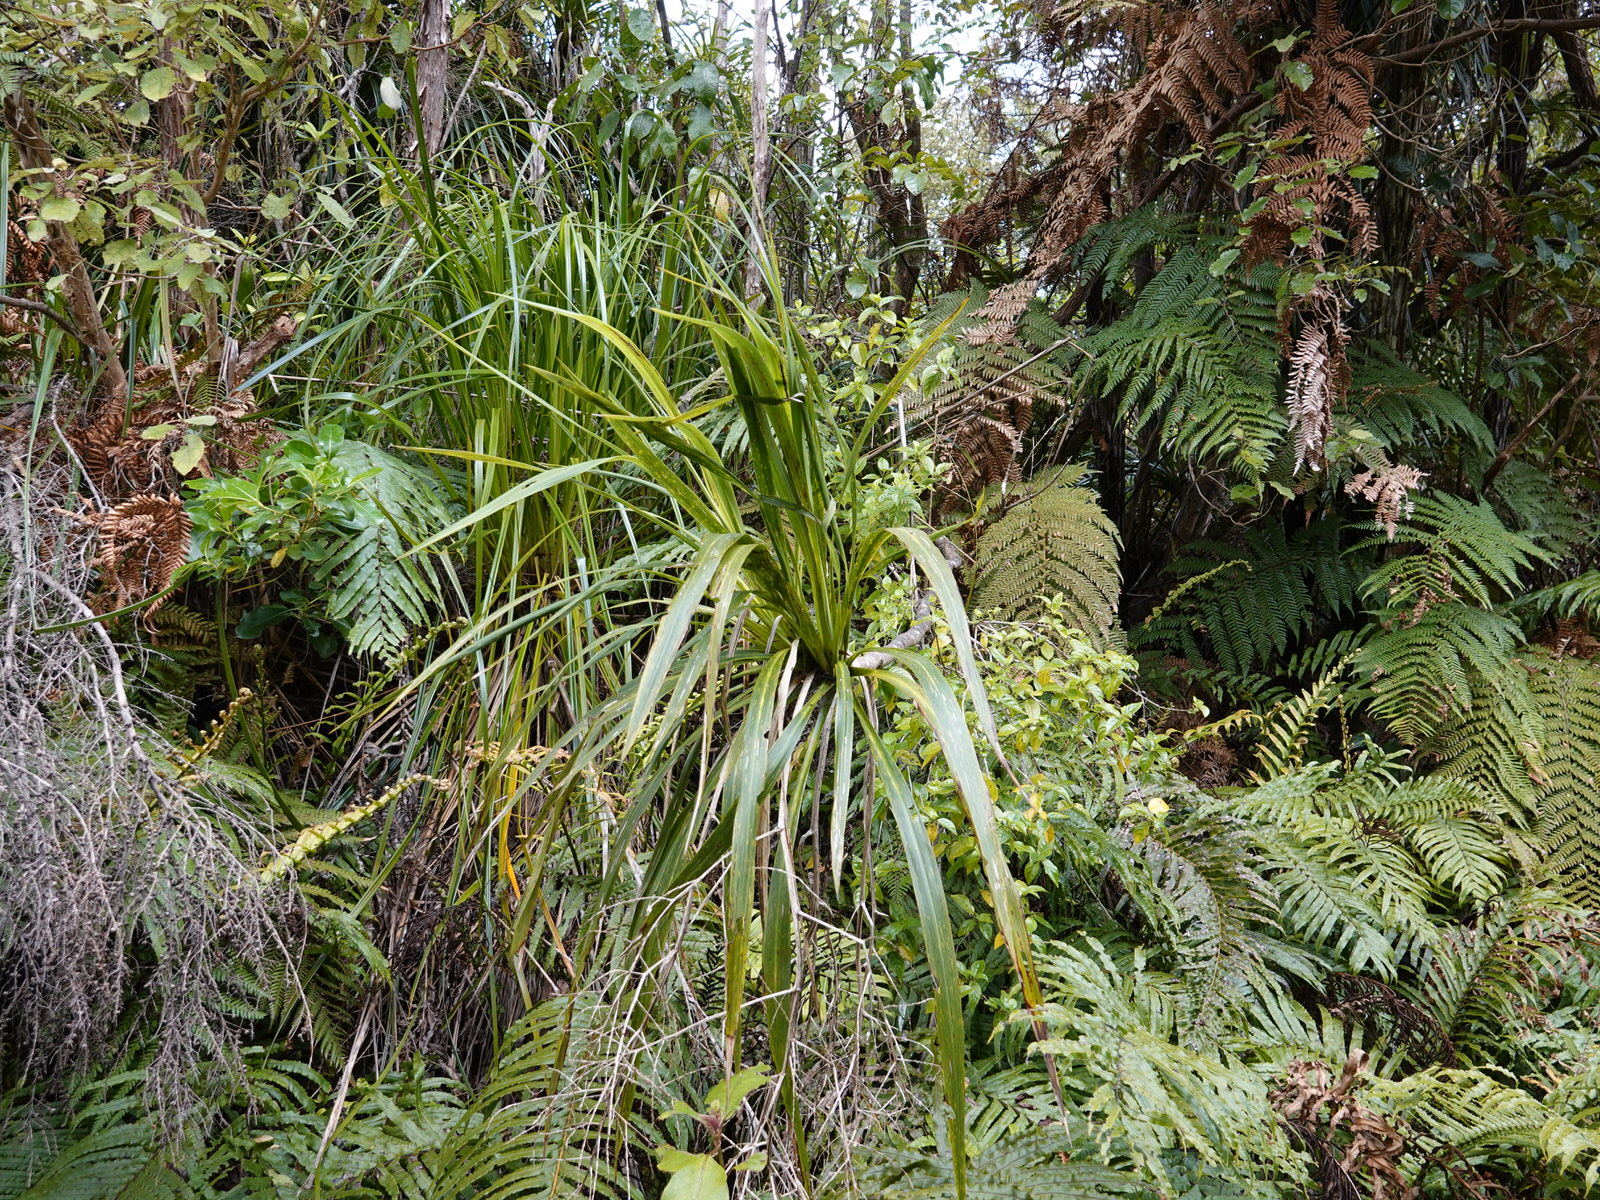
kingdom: Plantae
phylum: Tracheophyta
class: Liliopsida
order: Asparagales
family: Asparagaceae
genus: Cordyline
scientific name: Cordyline banksii
